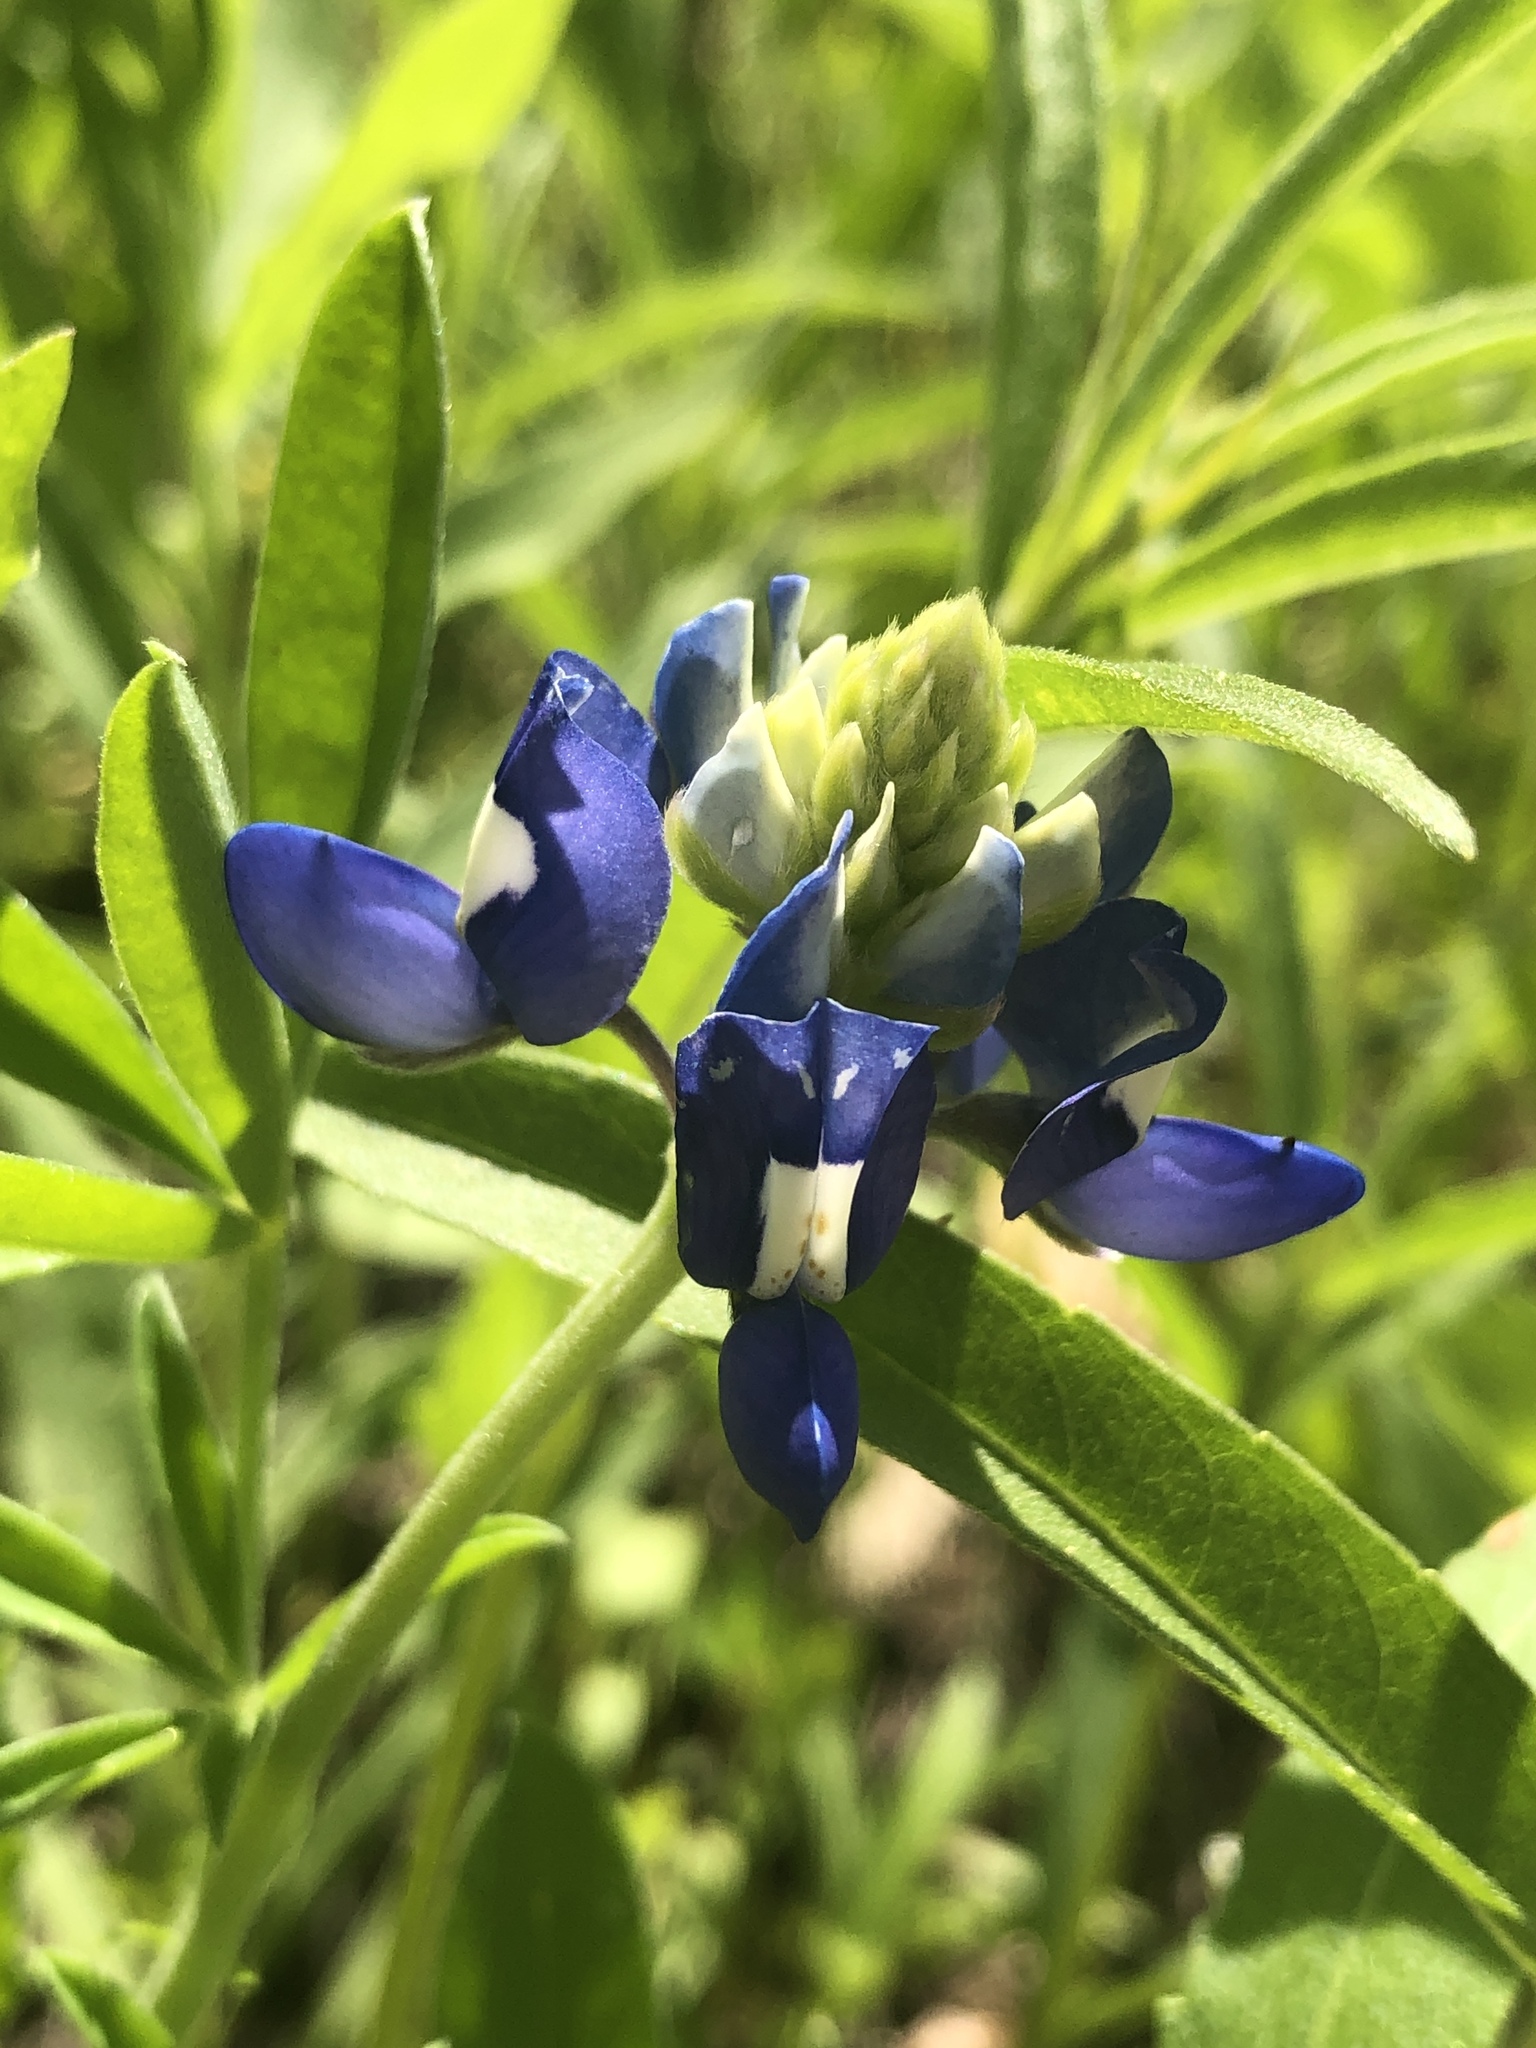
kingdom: Plantae
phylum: Tracheophyta
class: Magnoliopsida
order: Fabales
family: Fabaceae
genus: Lupinus
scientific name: Lupinus texensis
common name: Texas bluebonnet
